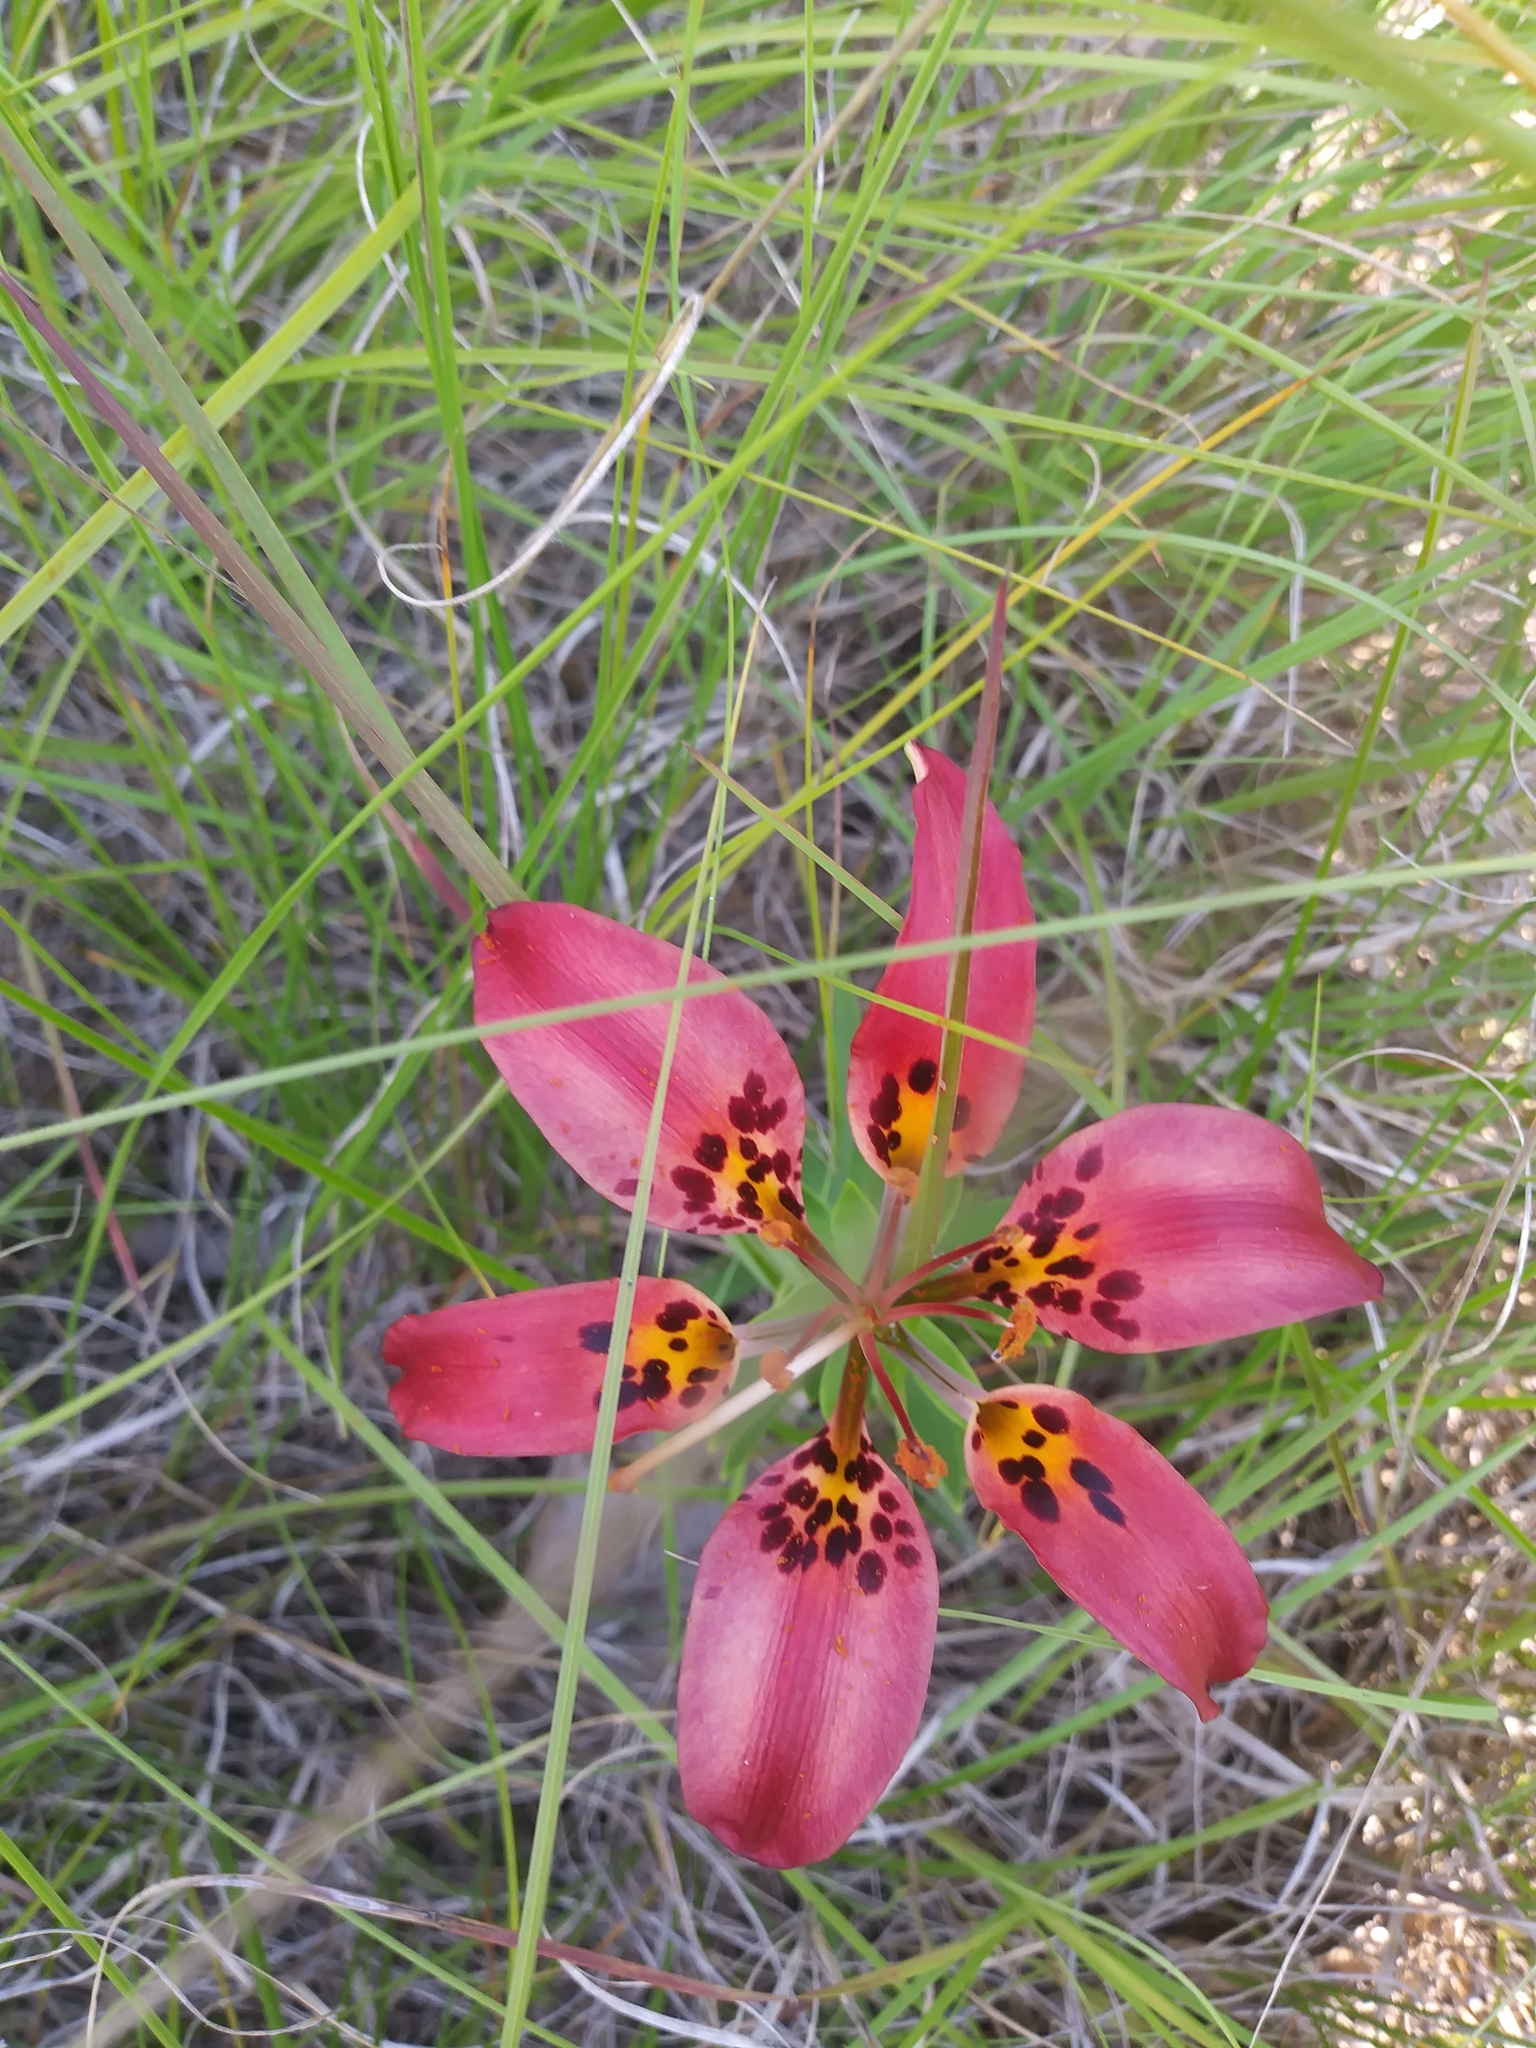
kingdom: Plantae
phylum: Tracheophyta
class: Liliopsida
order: Liliales
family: Liliaceae
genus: Lilium
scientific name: Lilium philadelphicum
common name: Red lily
